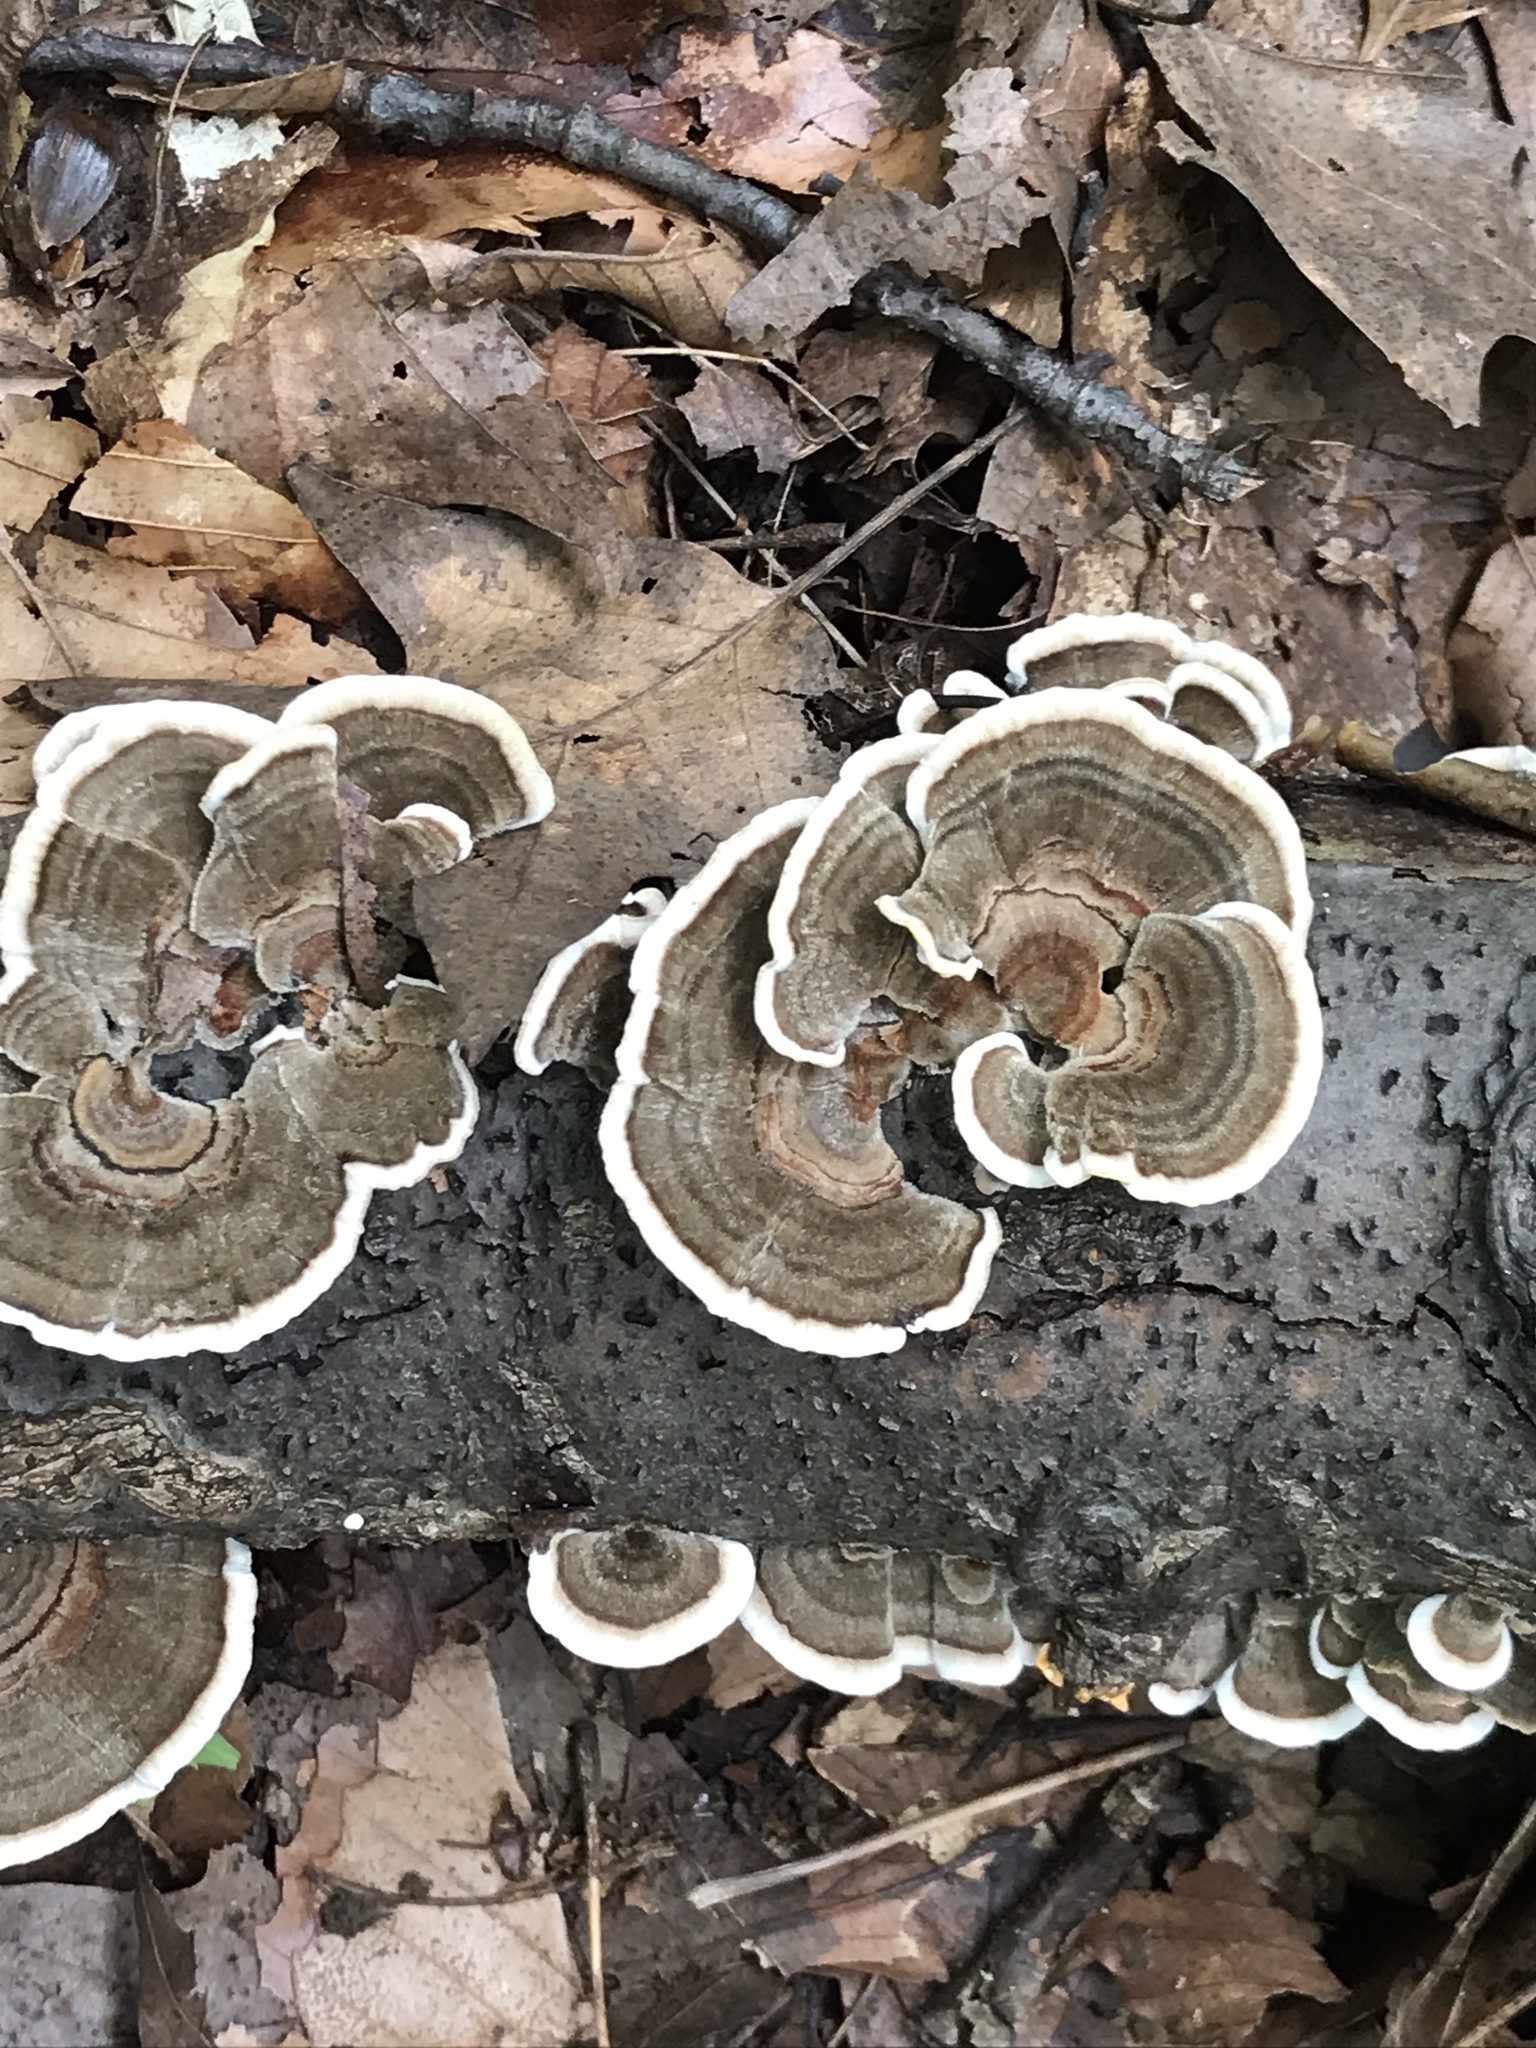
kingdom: Fungi
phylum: Basidiomycota
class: Agaricomycetes
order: Polyporales
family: Polyporaceae
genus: Trametes
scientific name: Trametes versicolor
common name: Turkeytail
